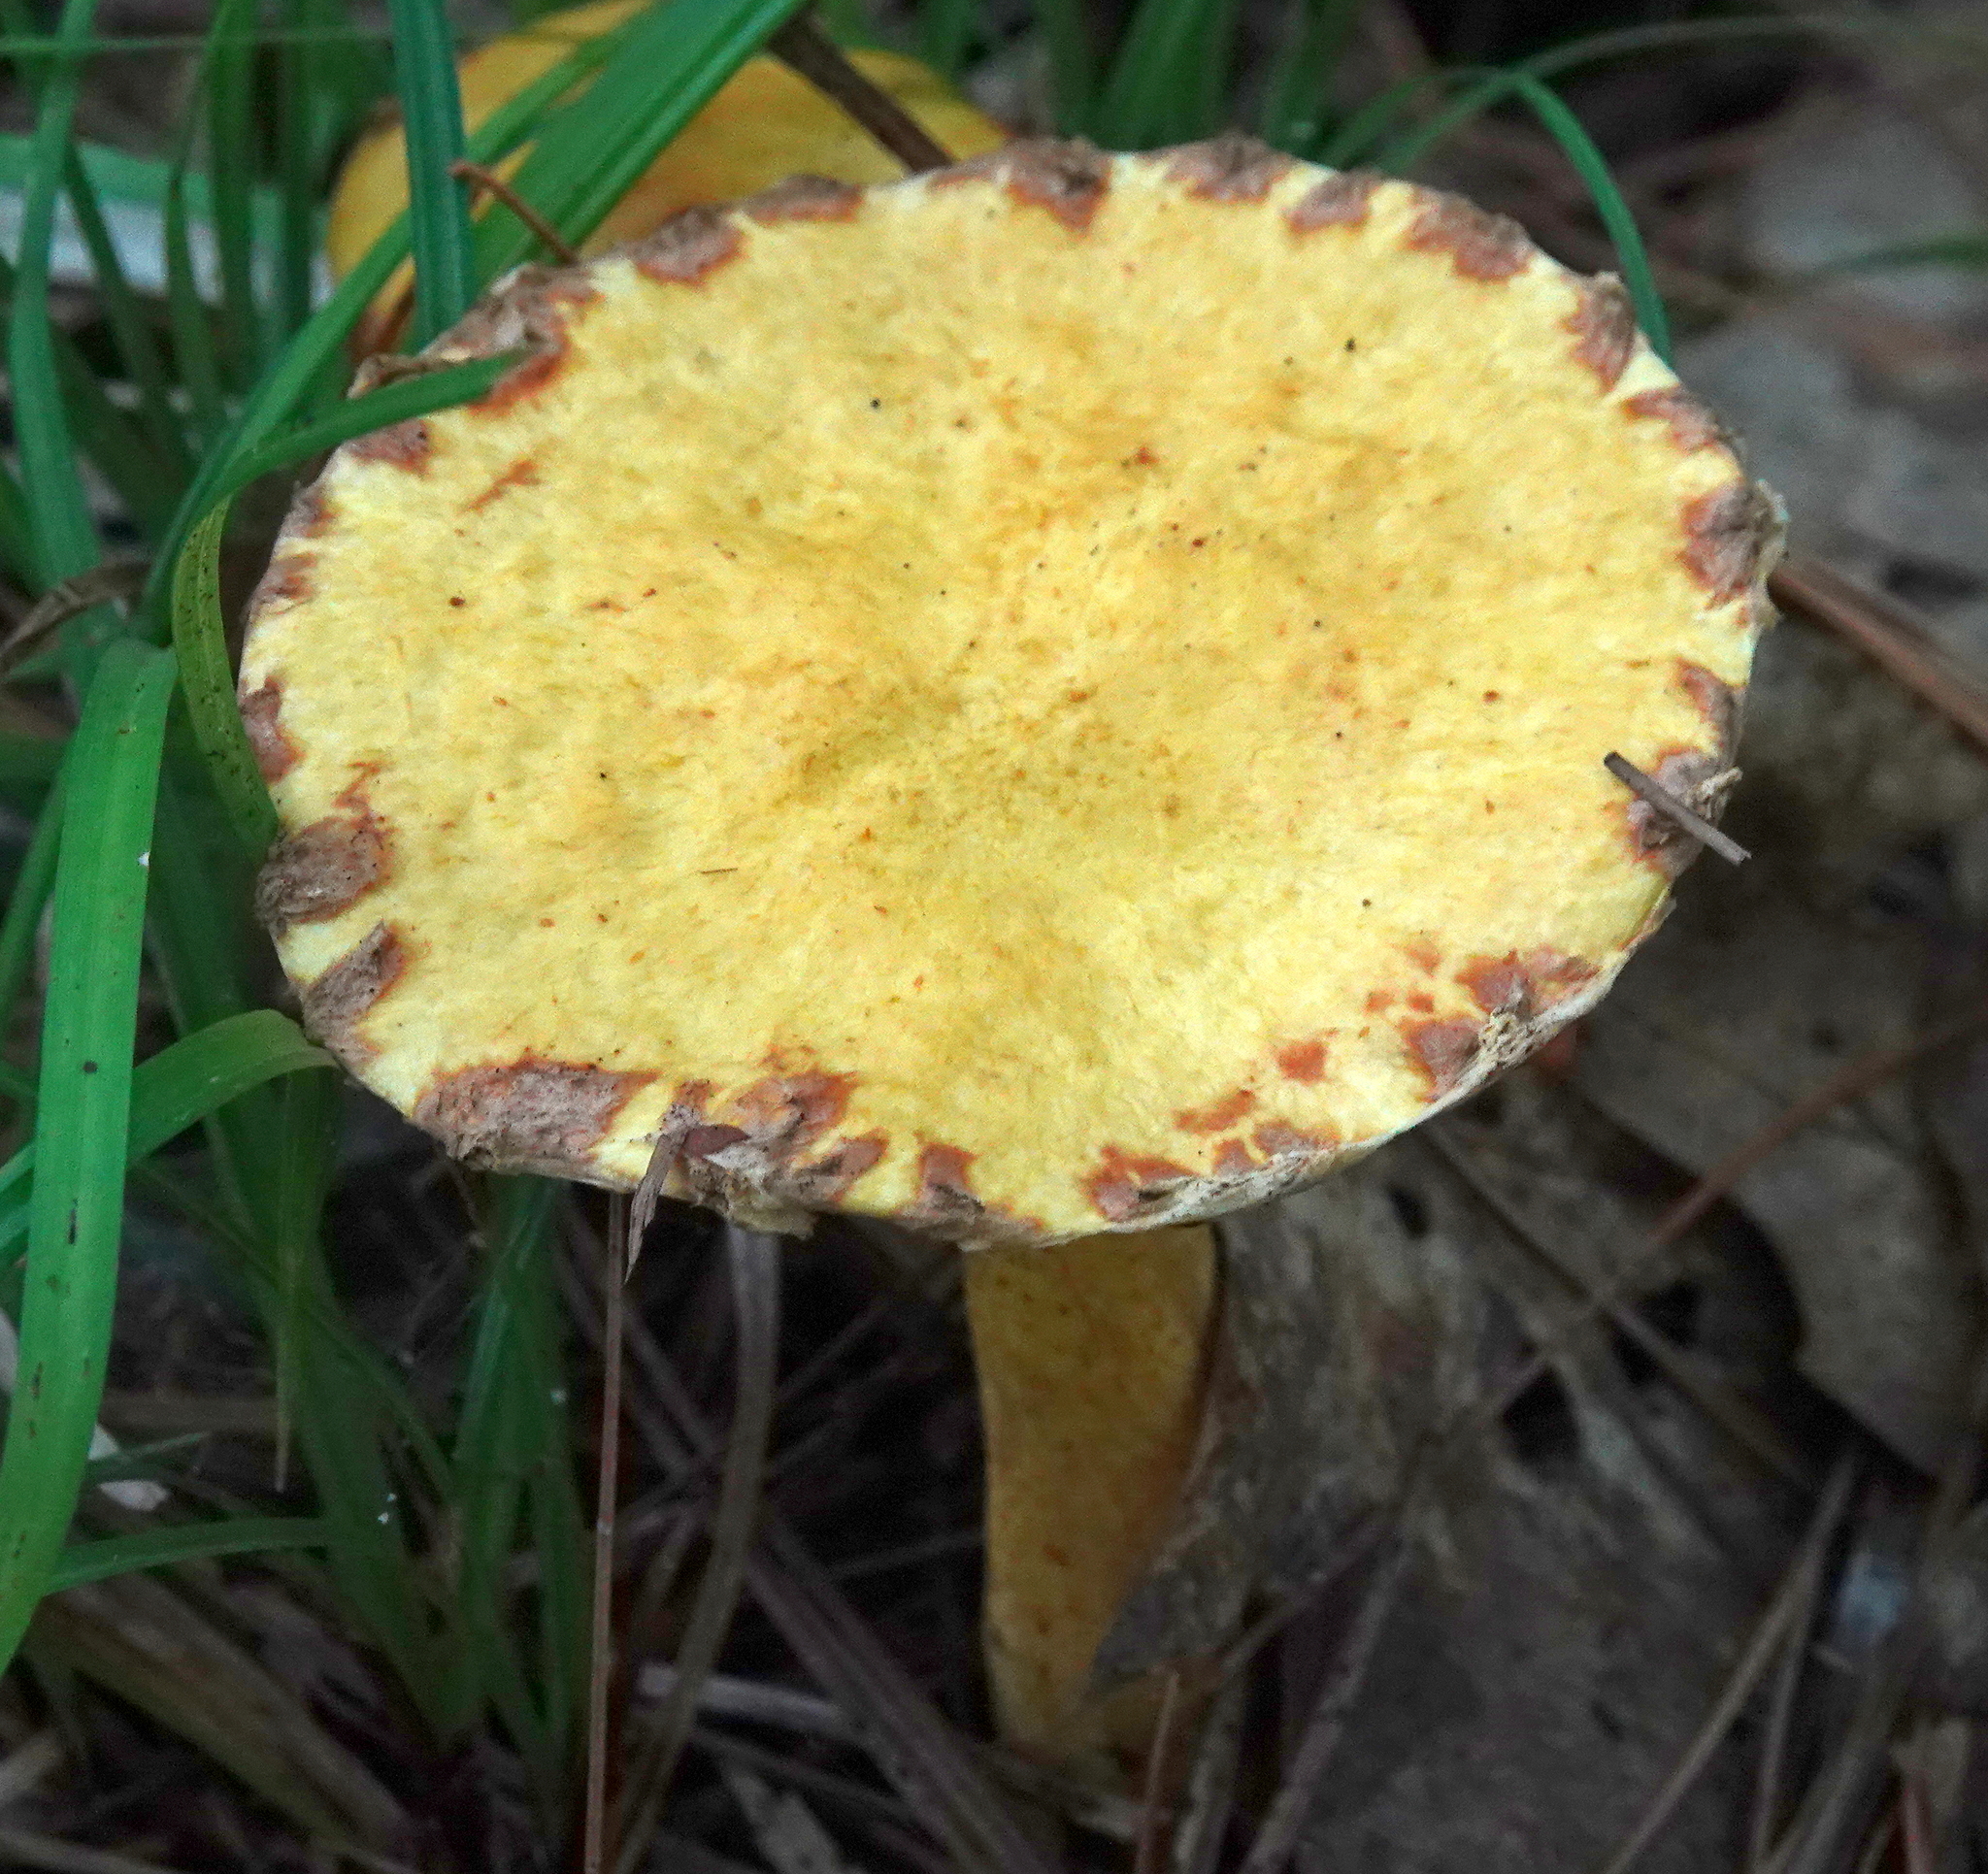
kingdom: Fungi
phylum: Basidiomycota
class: Agaricomycetes
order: Boletales
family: Suillaceae
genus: Suillus
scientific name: Suillus americanus
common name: Chicken fat mushroom
